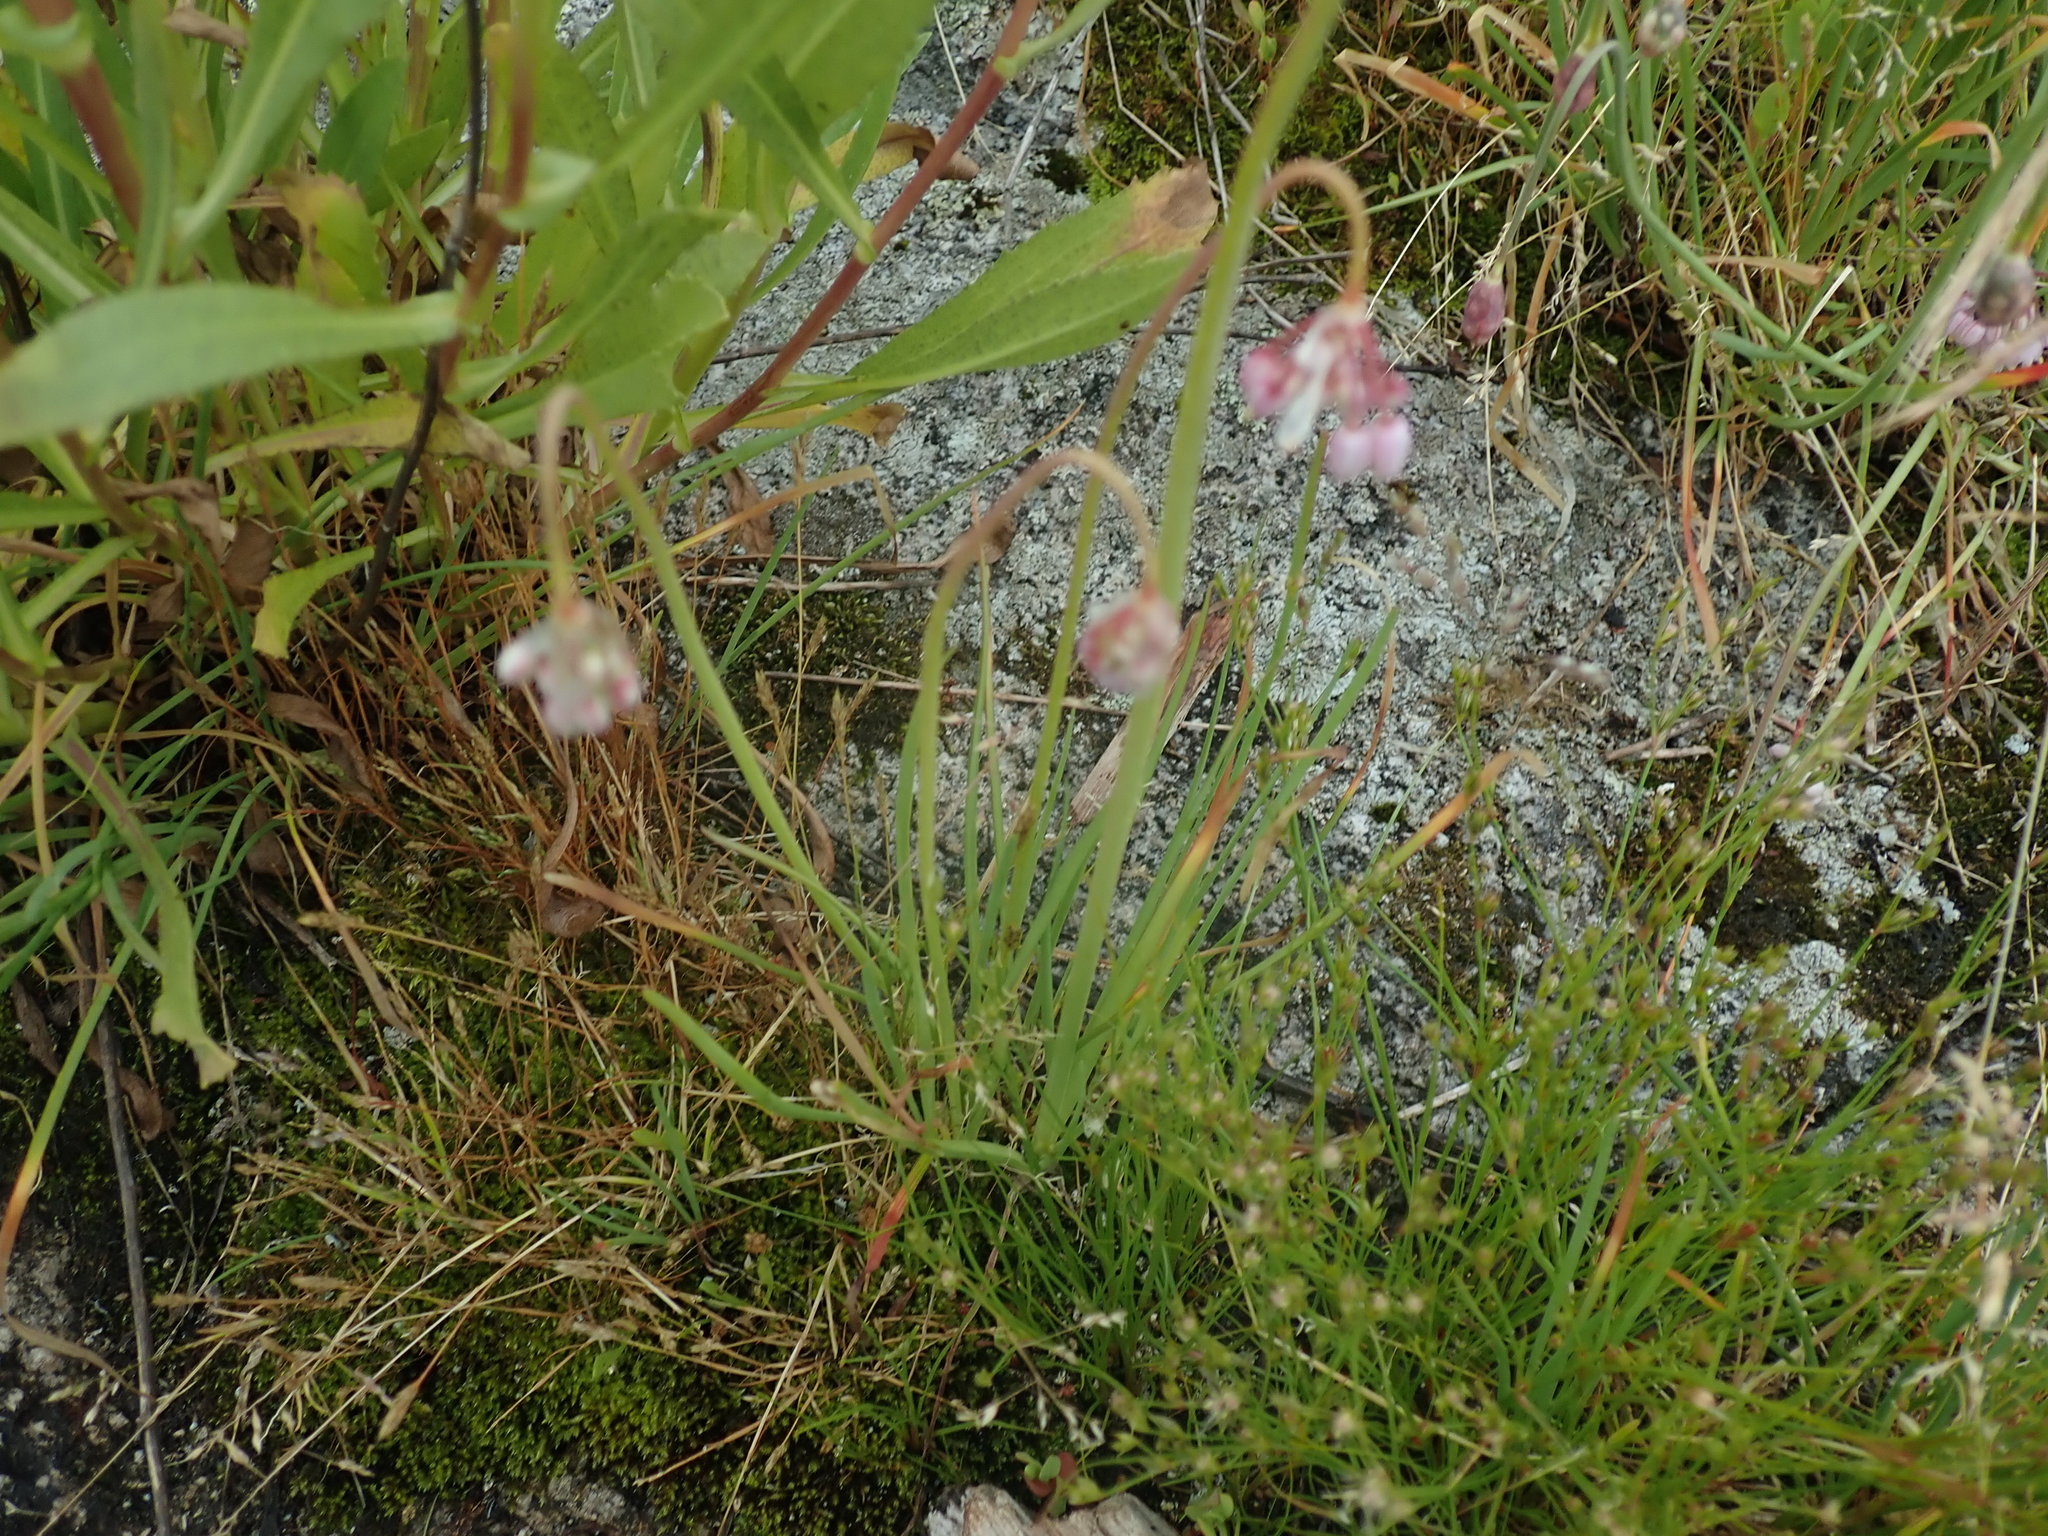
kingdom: Plantae
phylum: Tracheophyta
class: Liliopsida
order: Asparagales
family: Amaryllidaceae
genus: Allium
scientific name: Allium cernuum
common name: Nodding onion
